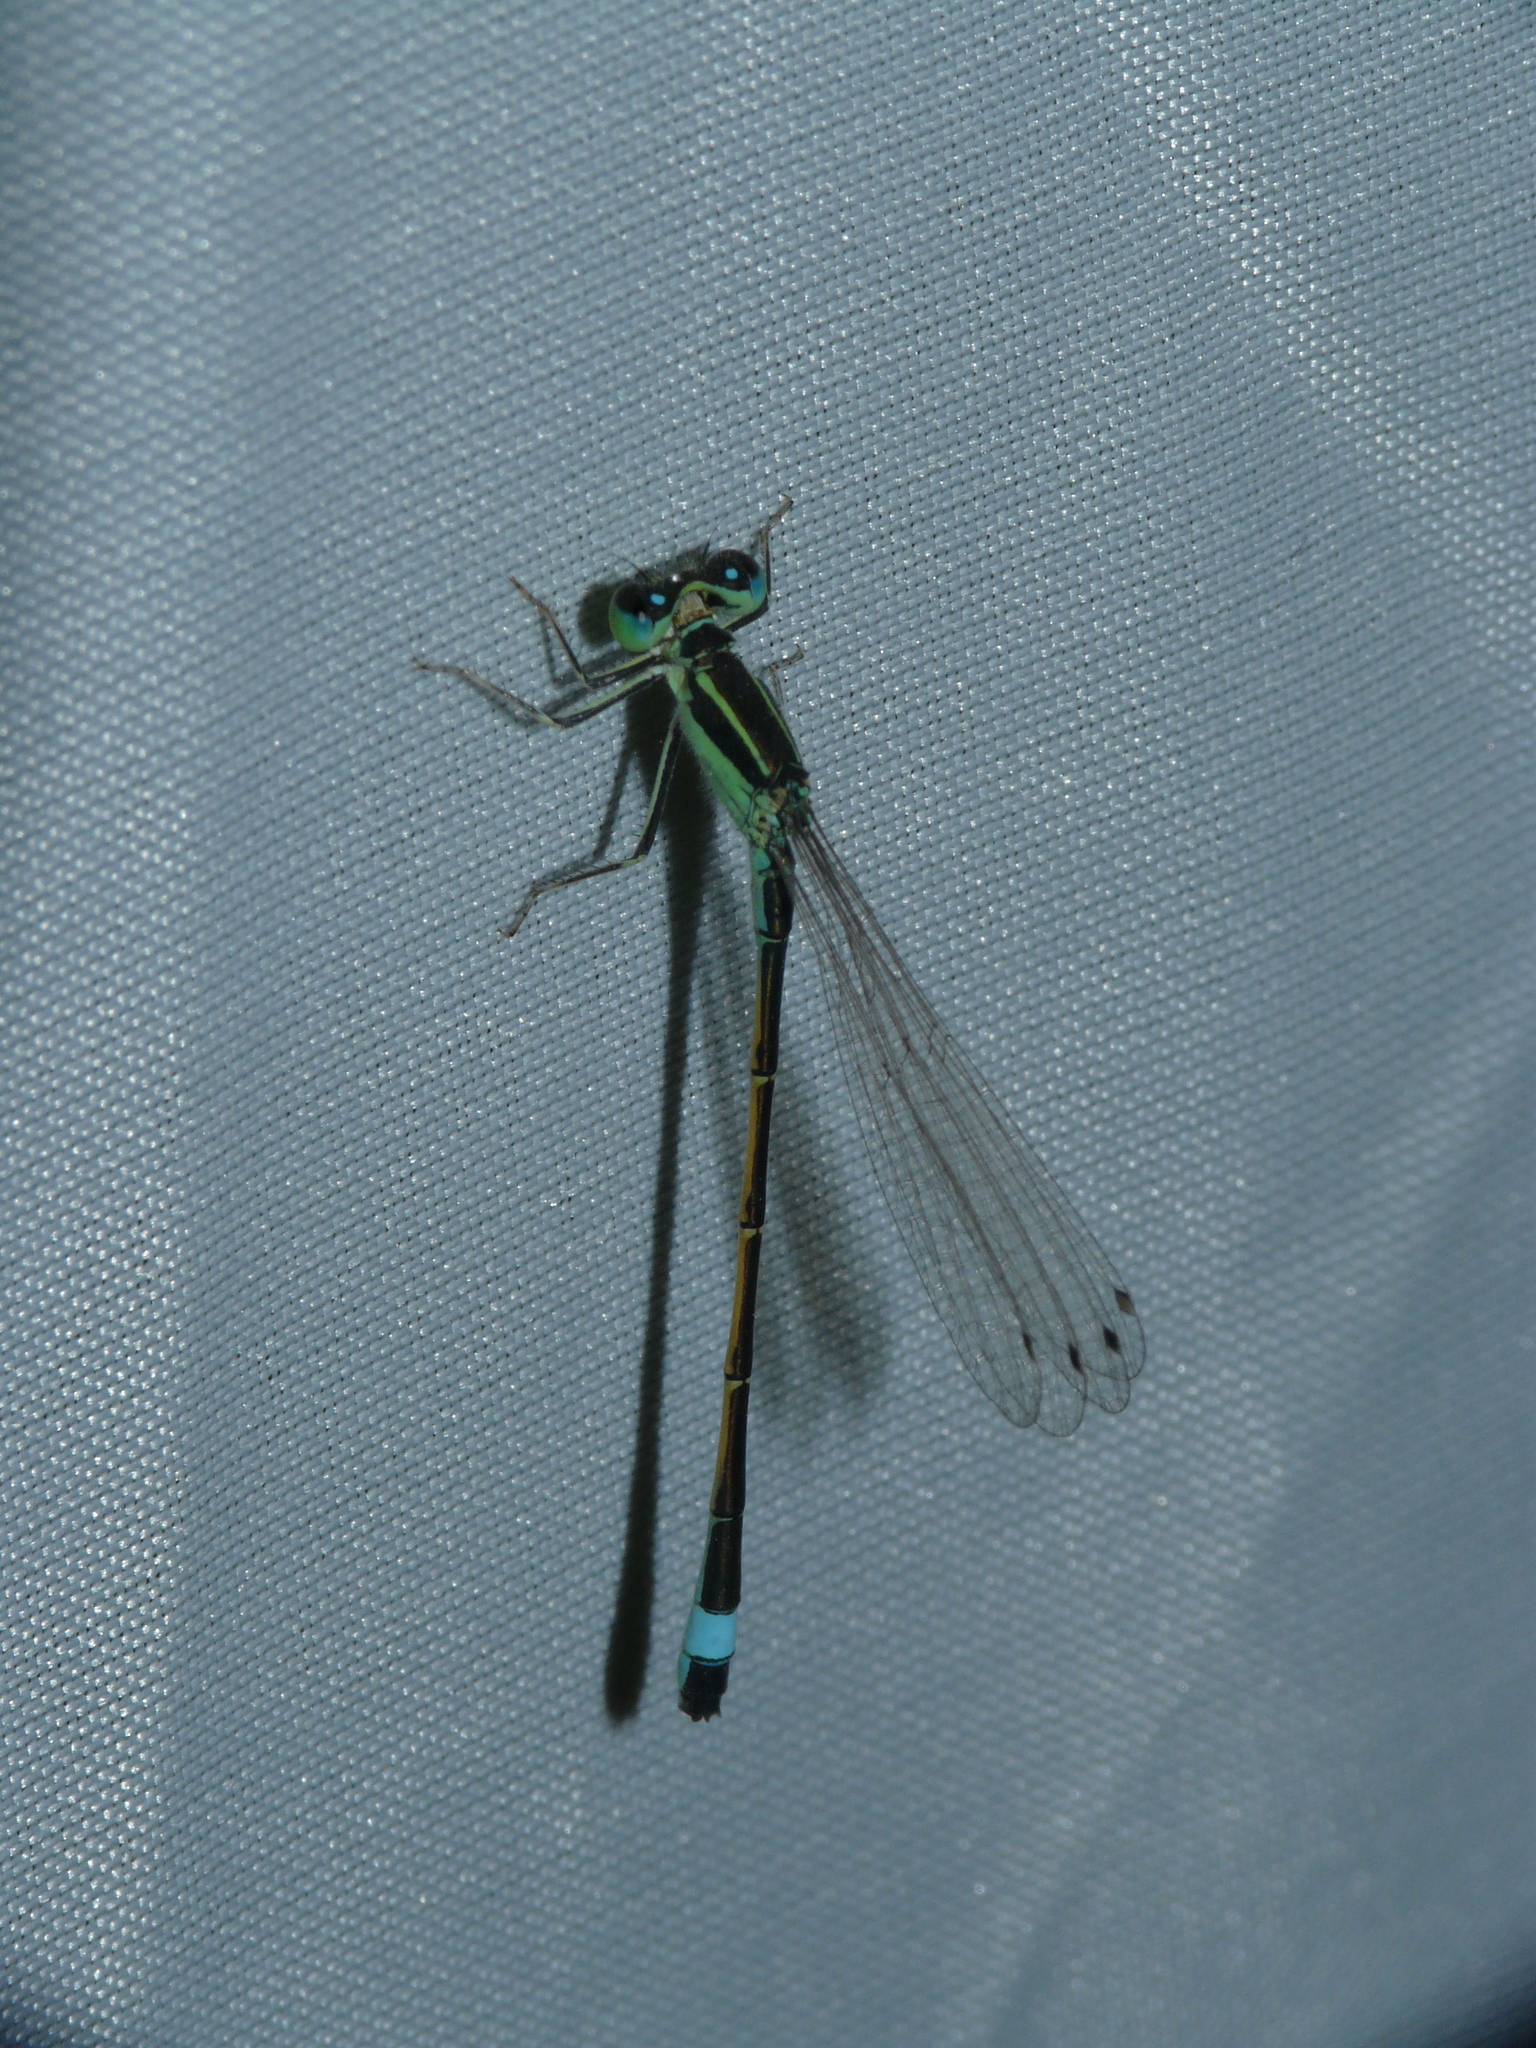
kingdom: Animalia
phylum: Arthropoda
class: Insecta
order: Odonata
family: Coenagrionidae
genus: Ischnura
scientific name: Ischnura evansi
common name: Desert bluetail
